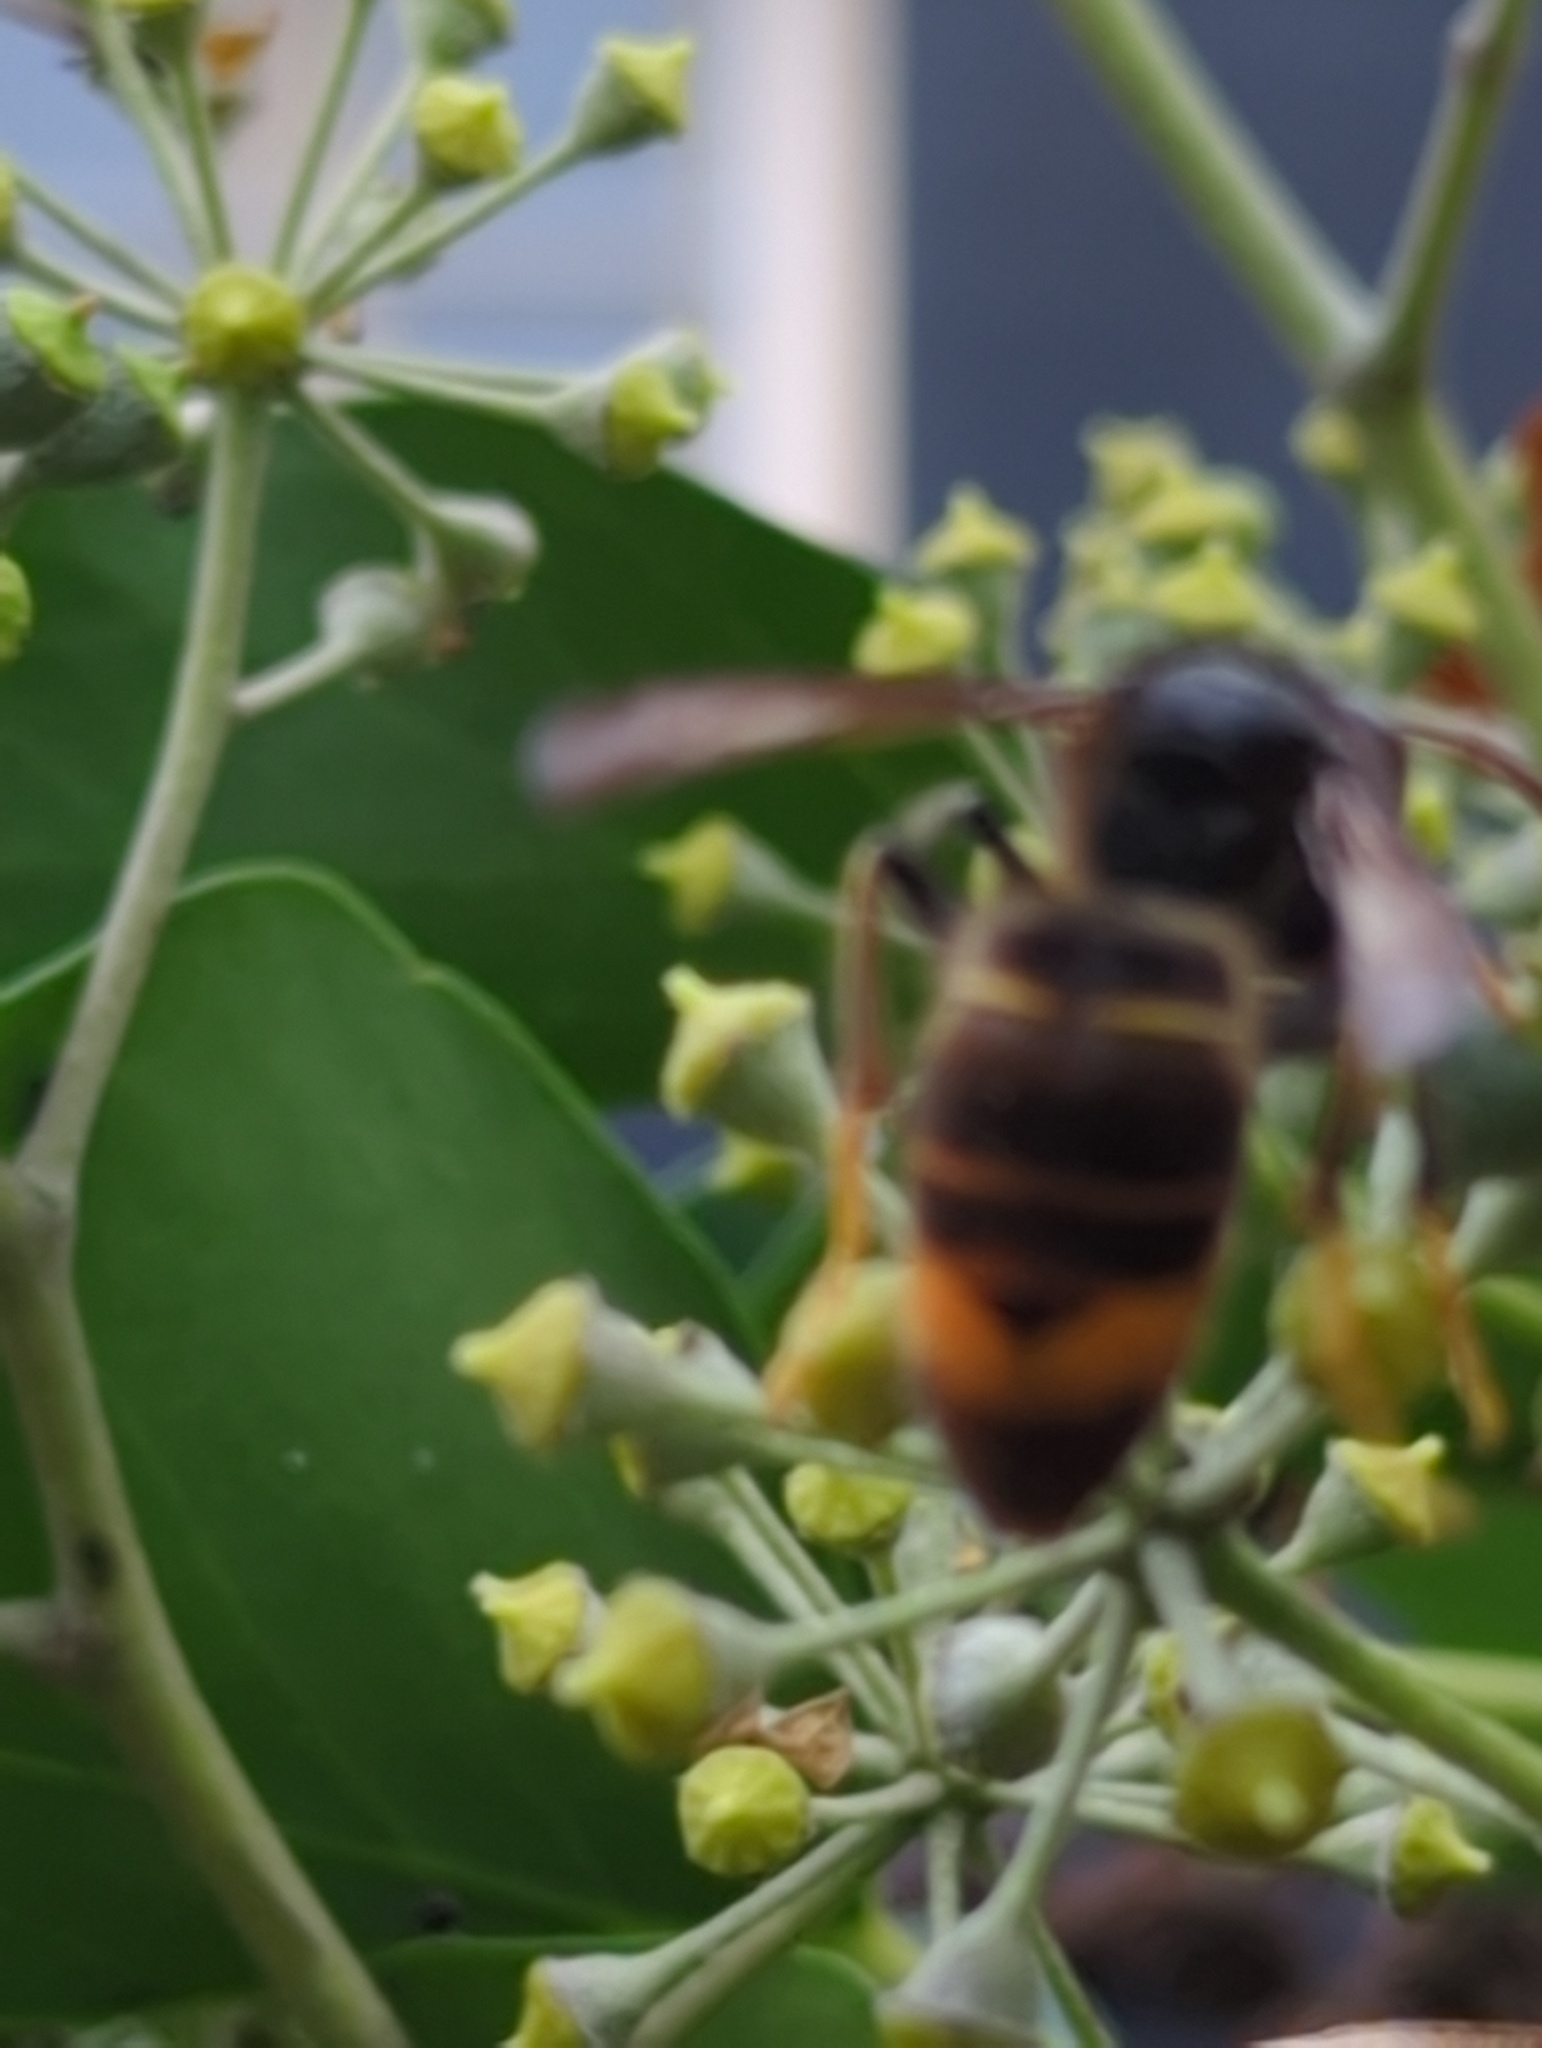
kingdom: Animalia
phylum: Arthropoda
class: Insecta
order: Hymenoptera
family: Vespidae
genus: Vespa
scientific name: Vespa velutina
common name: Asian hornet
